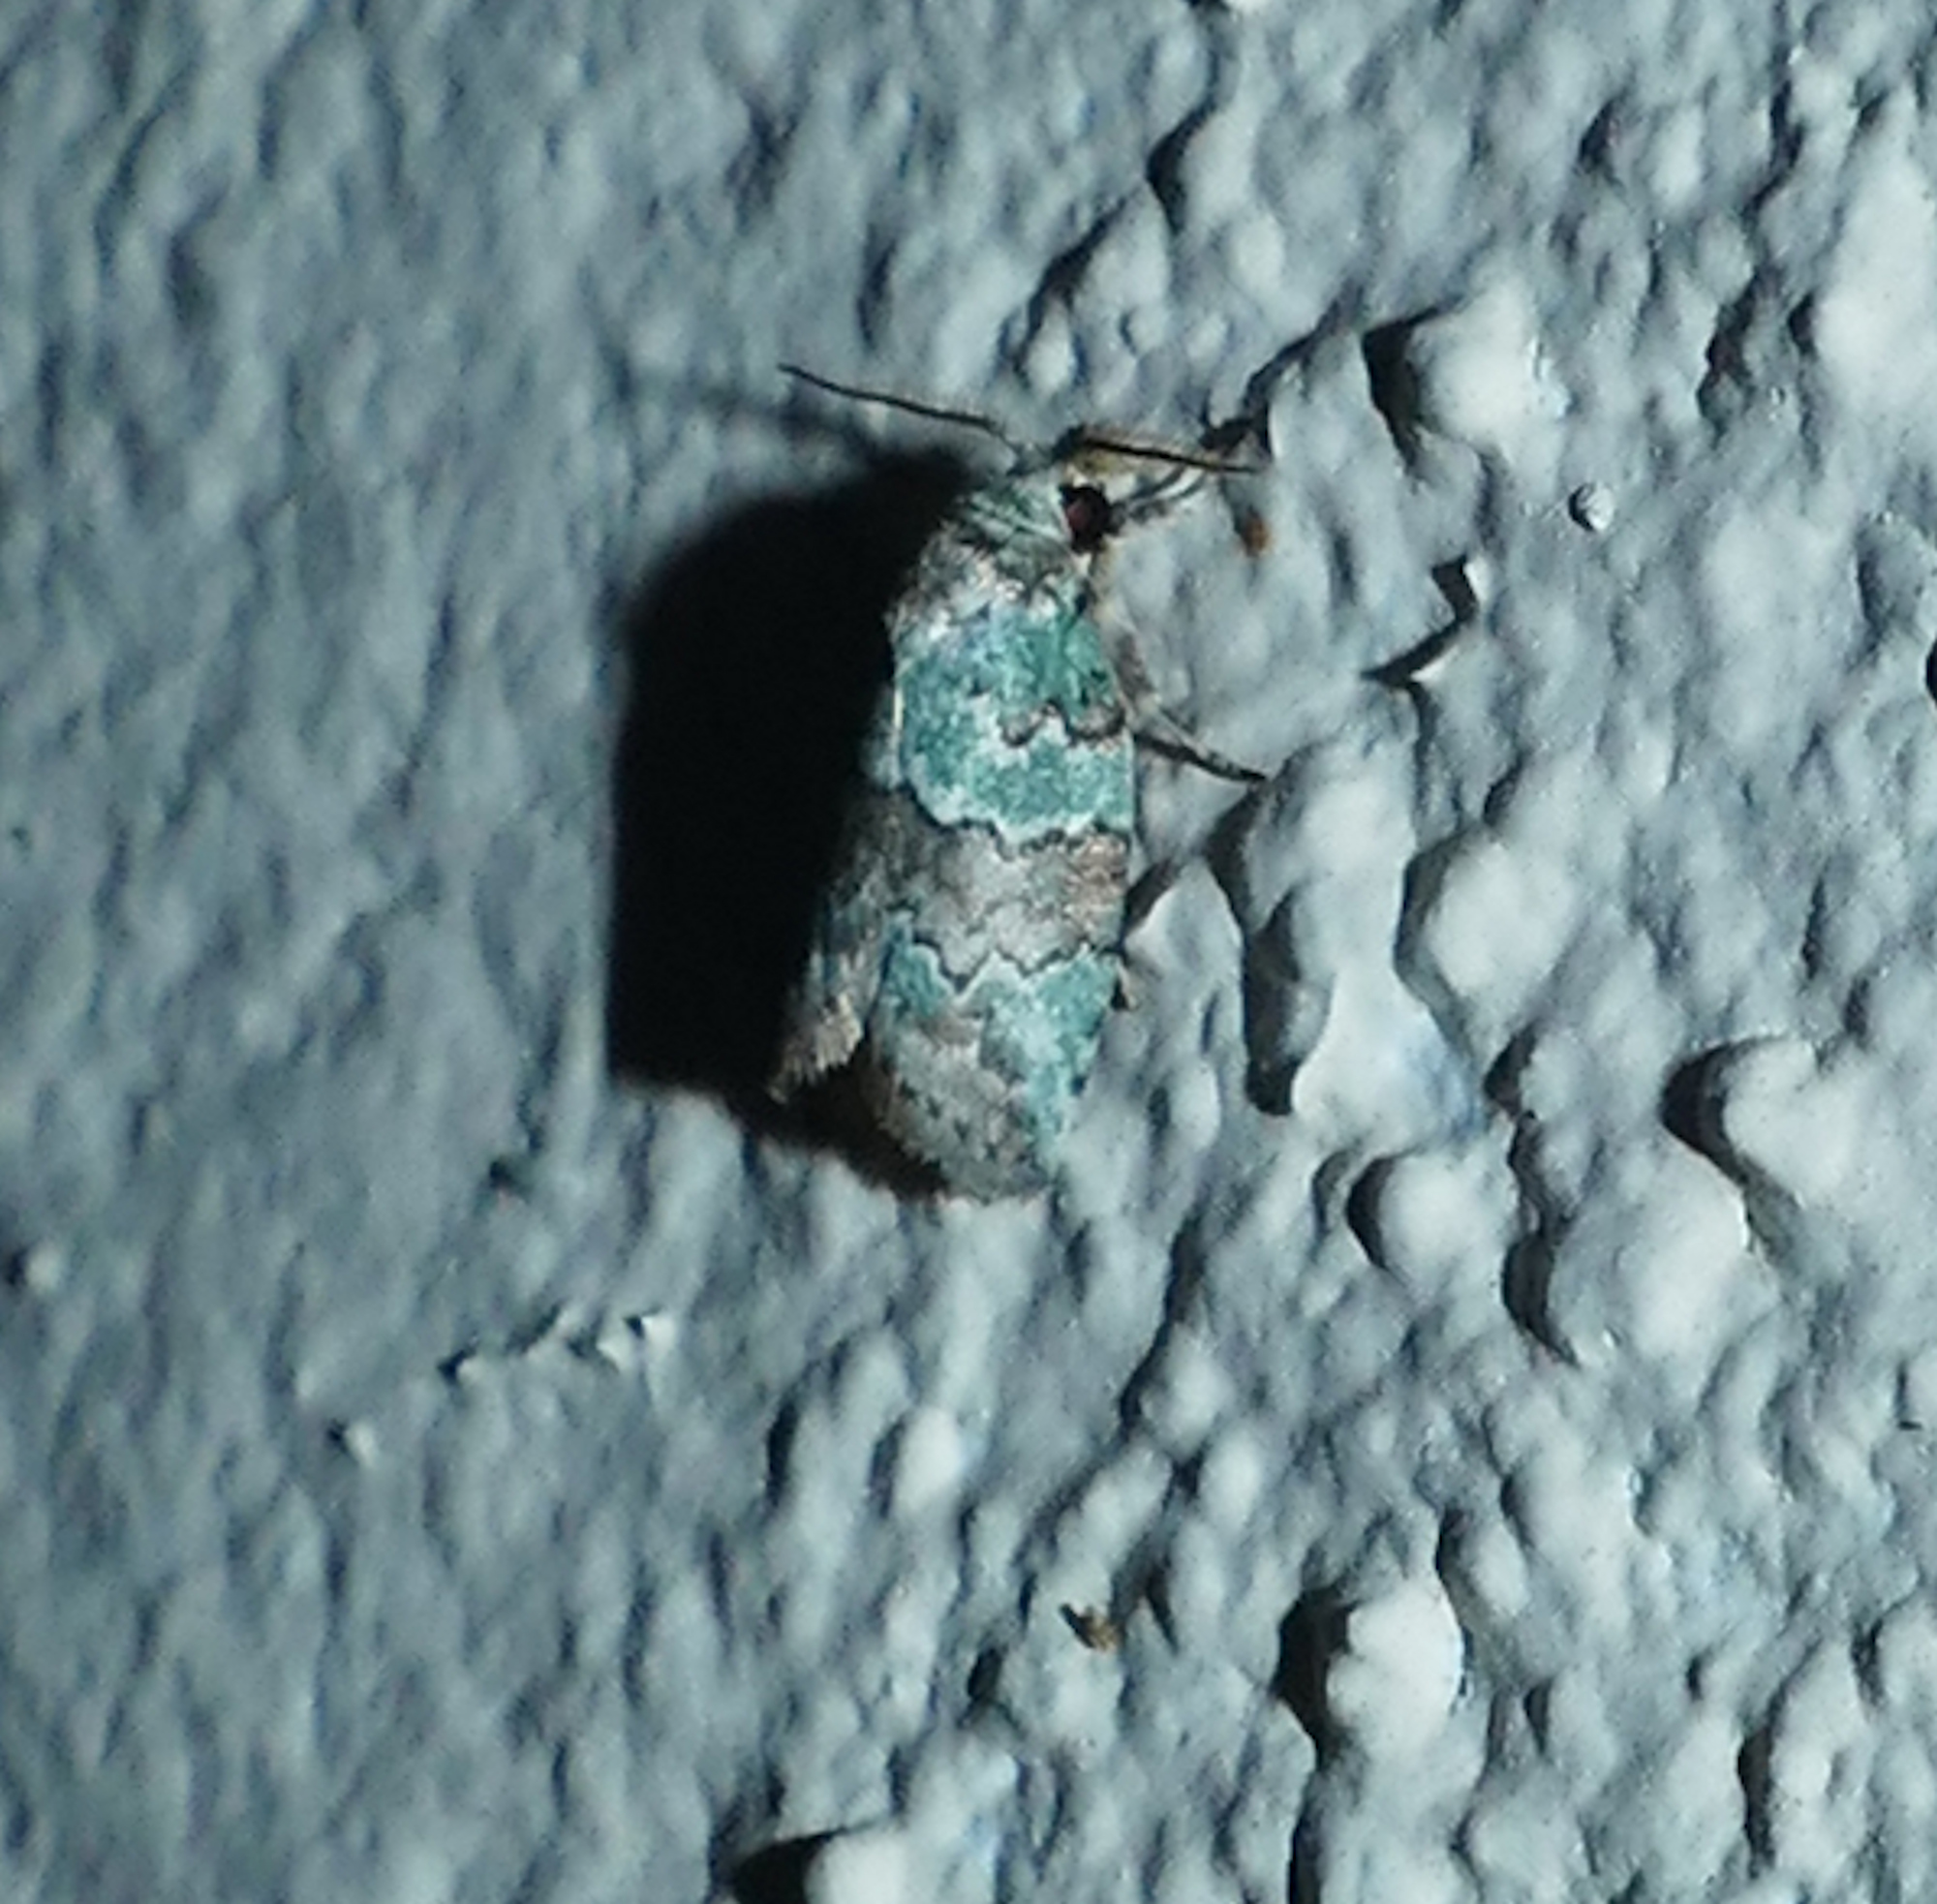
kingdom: Animalia
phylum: Arthropoda
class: Insecta
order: Lepidoptera
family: Nolidae
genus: Afrida
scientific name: Afrida ydatodes
